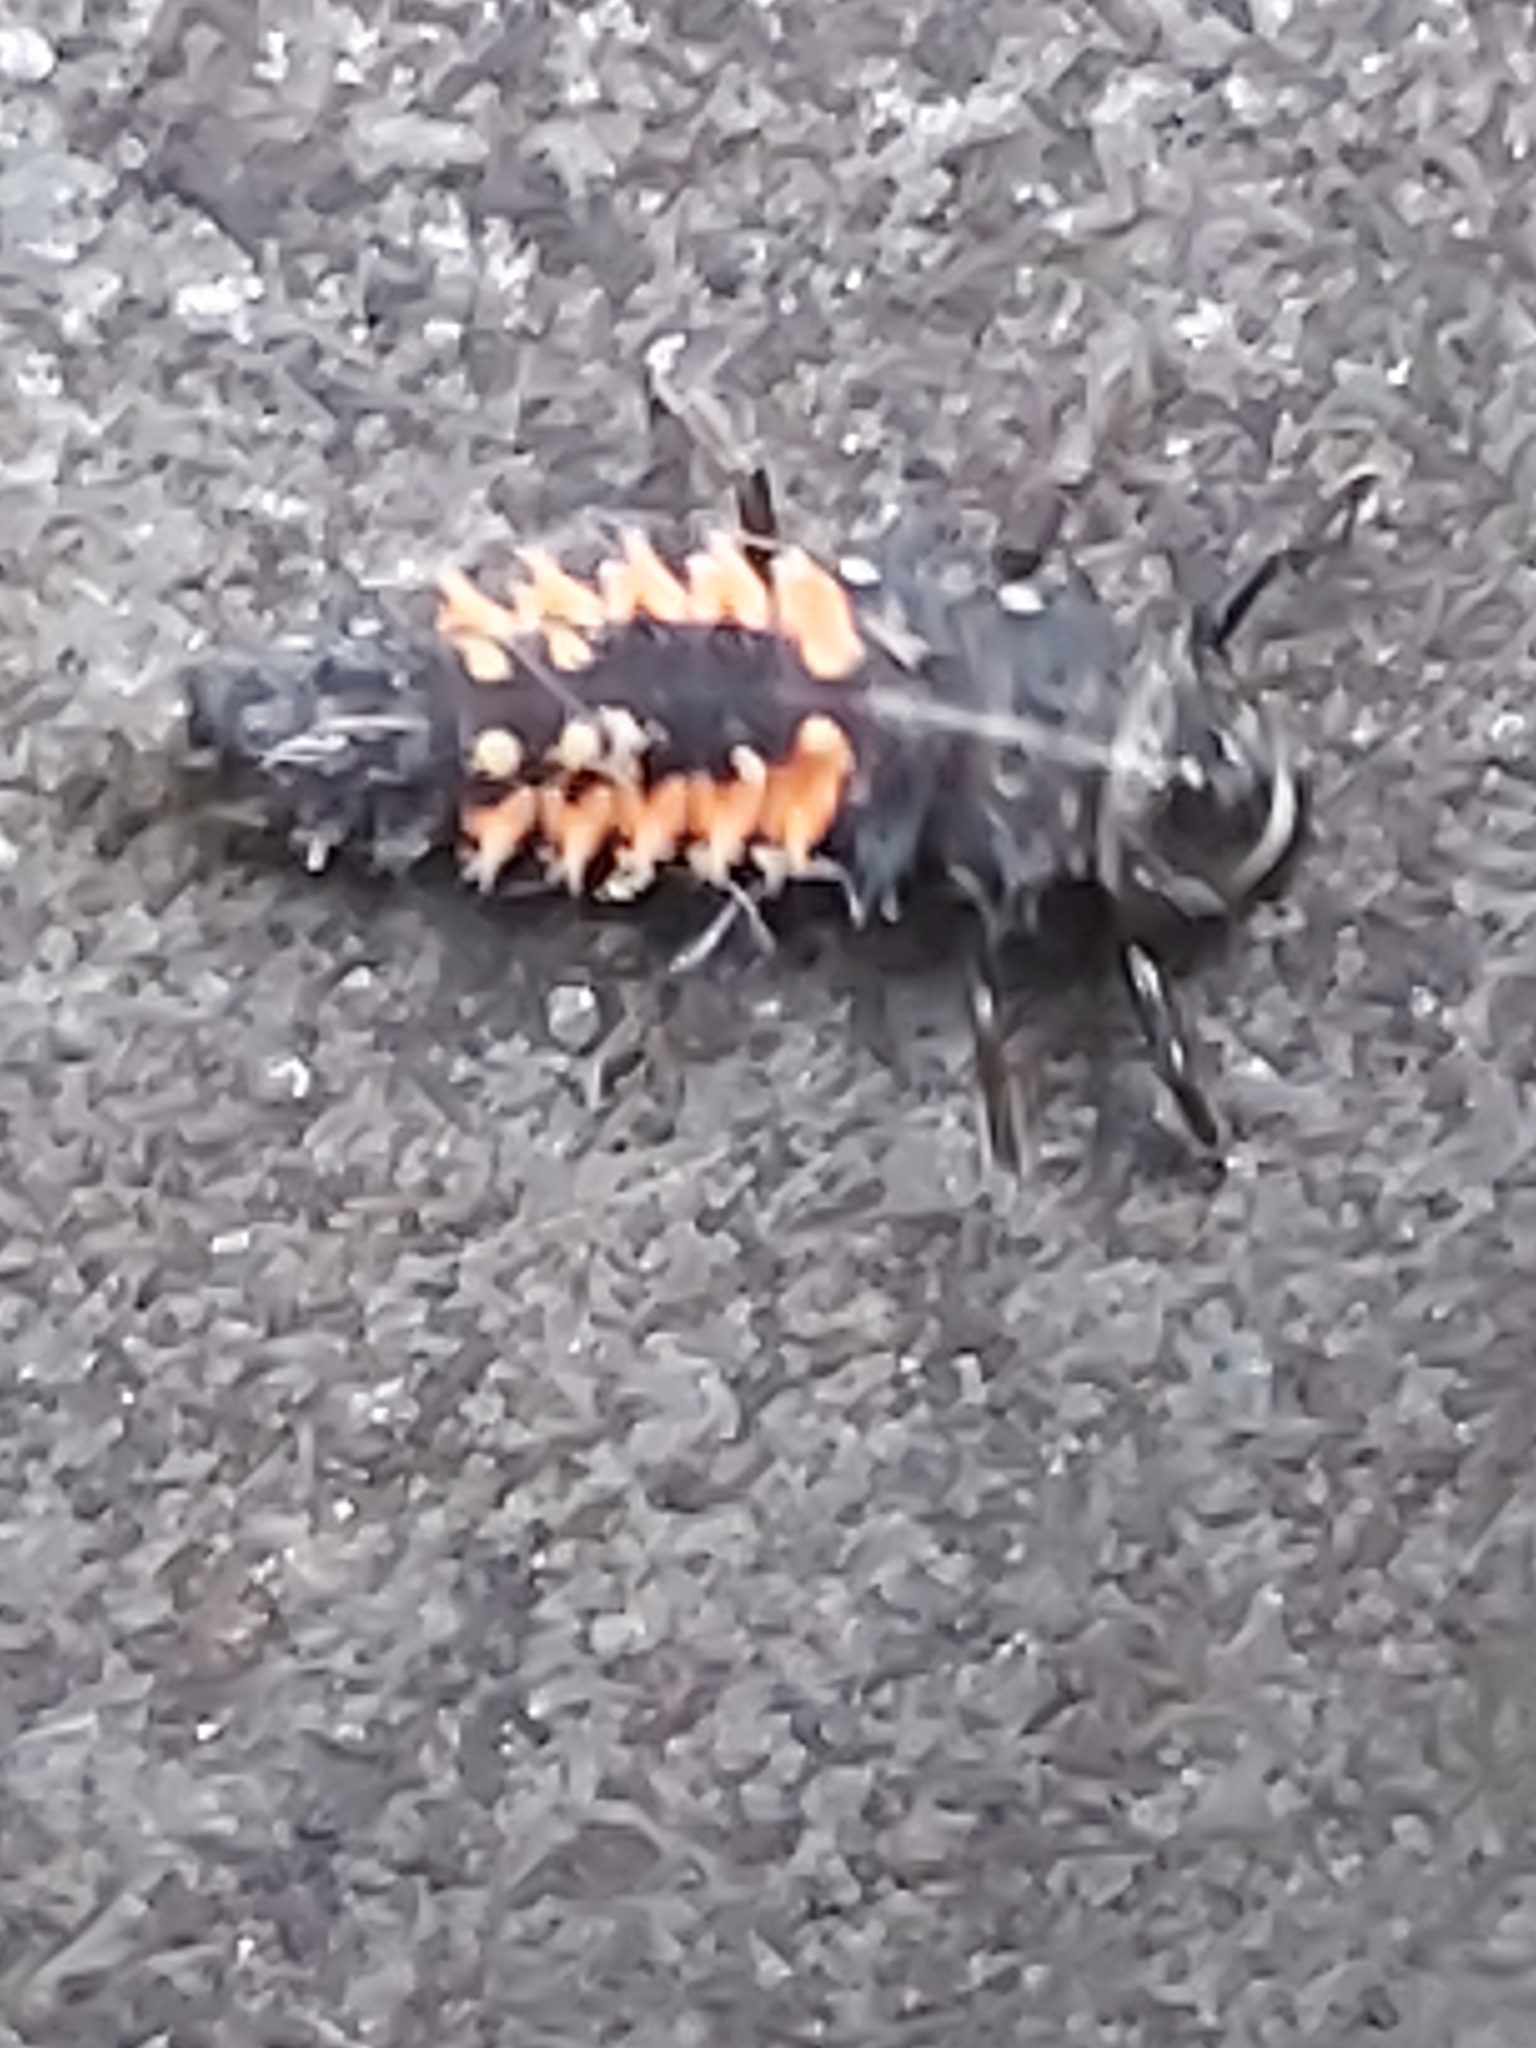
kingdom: Animalia
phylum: Arthropoda
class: Insecta
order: Coleoptera
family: Coccinellidae
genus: Harmonia
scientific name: Harmonia axyridis
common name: Harlequin ladybird
